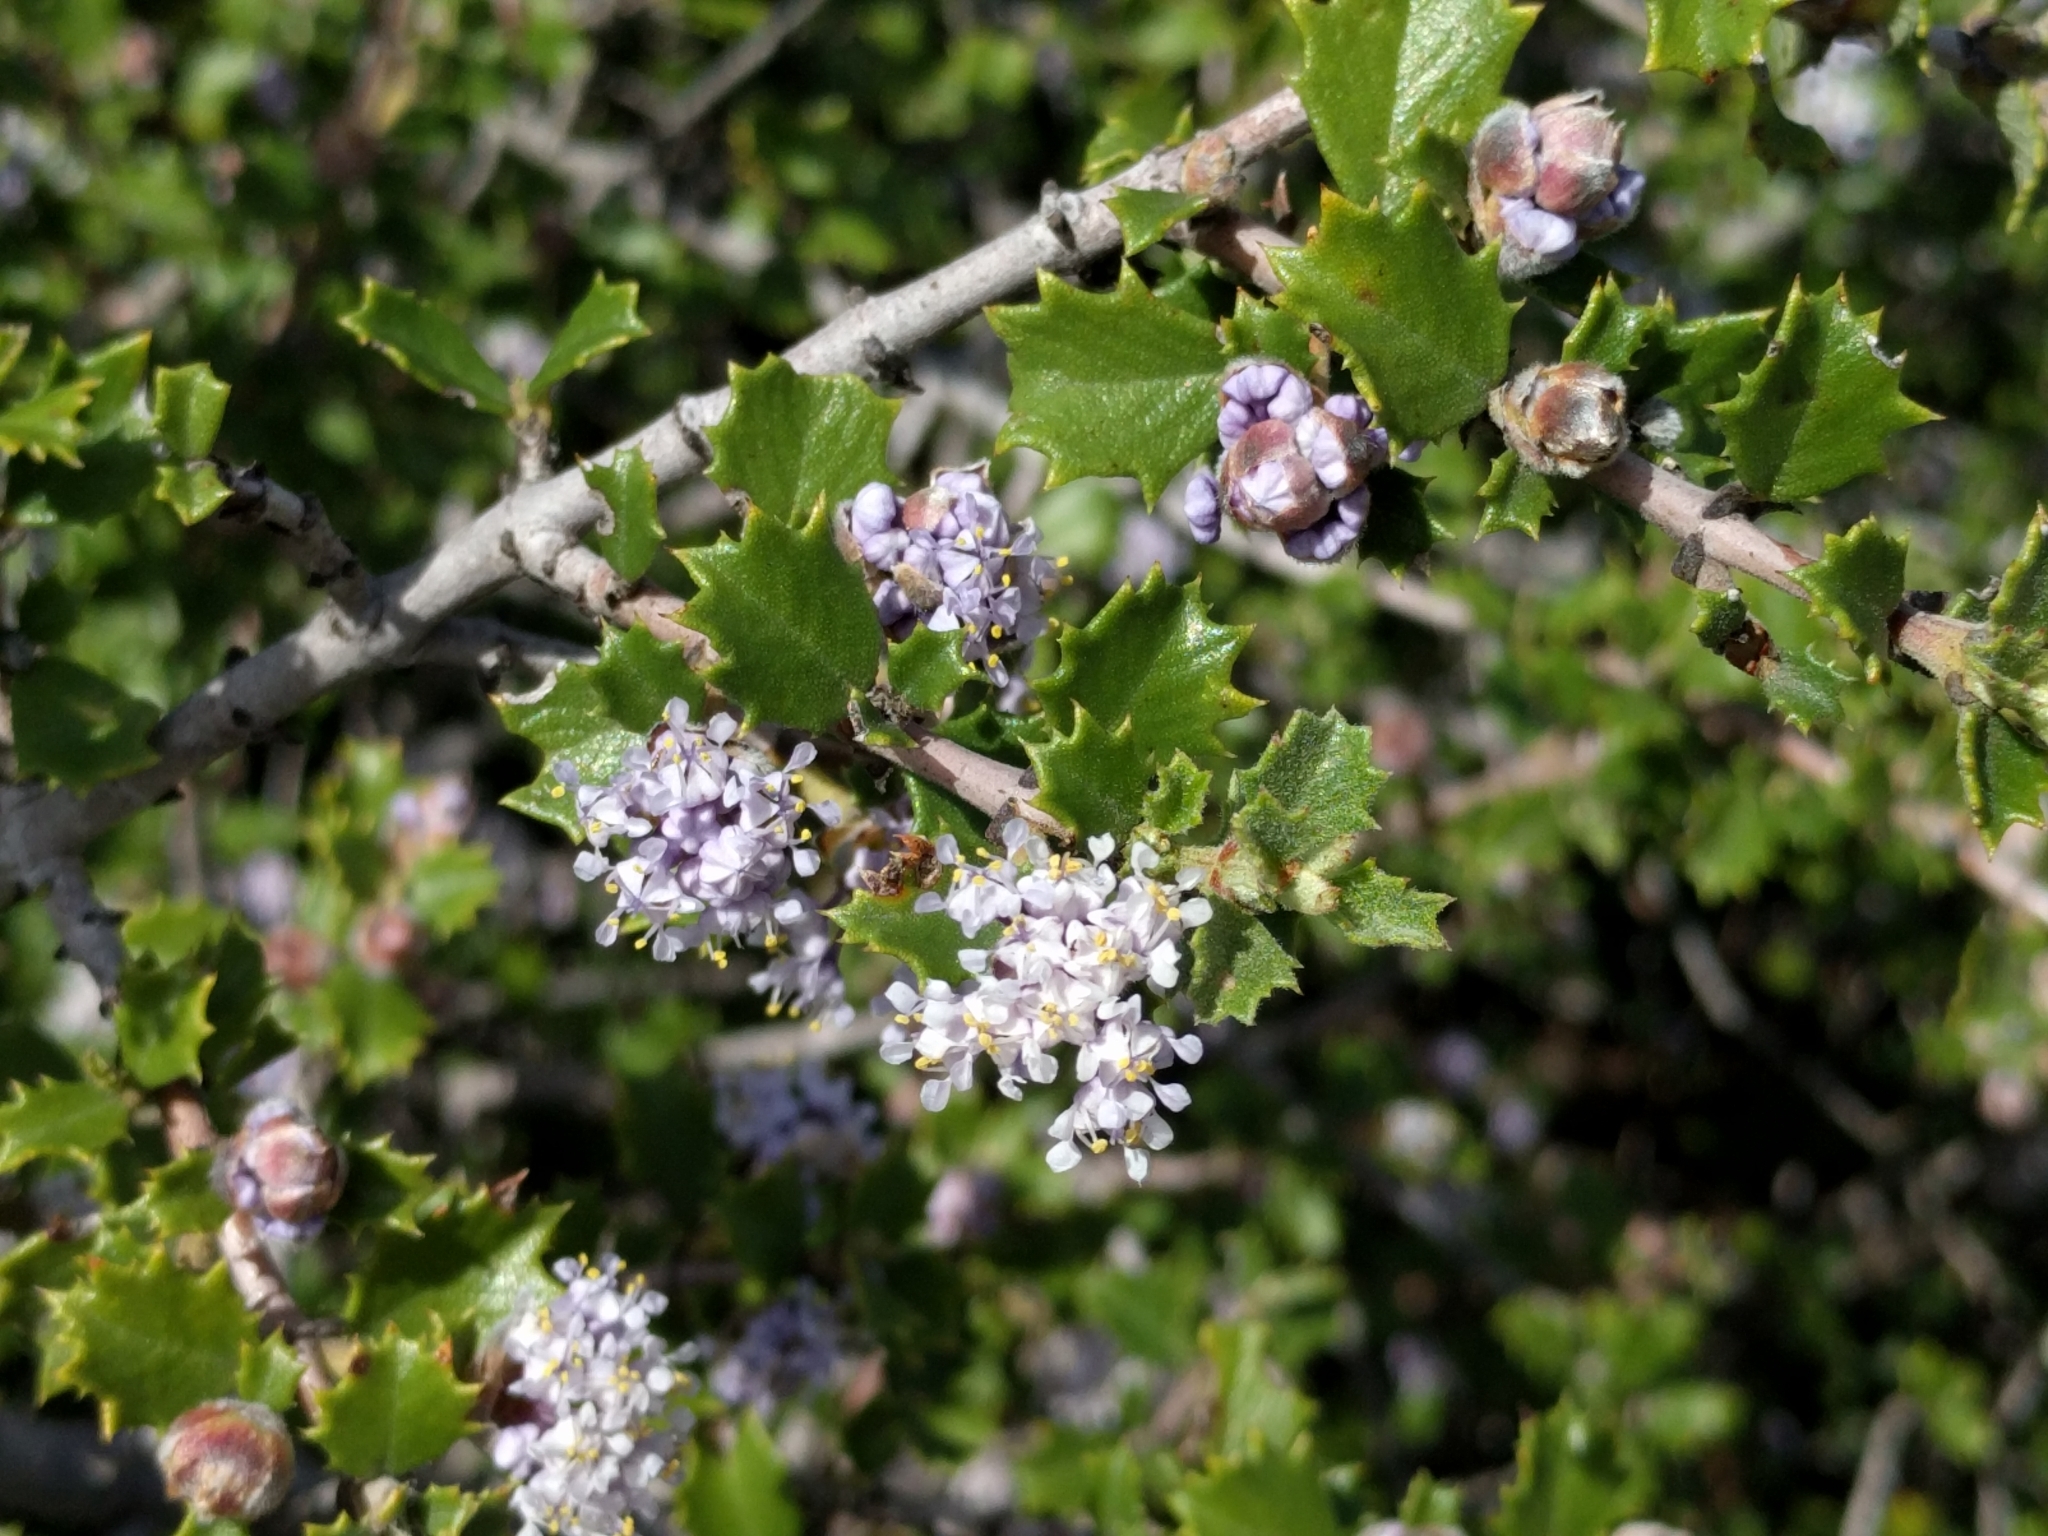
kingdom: Plantae
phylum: Tracheophyta
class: Magnoliopsida
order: Rosales
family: Rhamnaceae
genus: Ceanothus
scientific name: Ceanothus jepsonii
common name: Muskbrush
